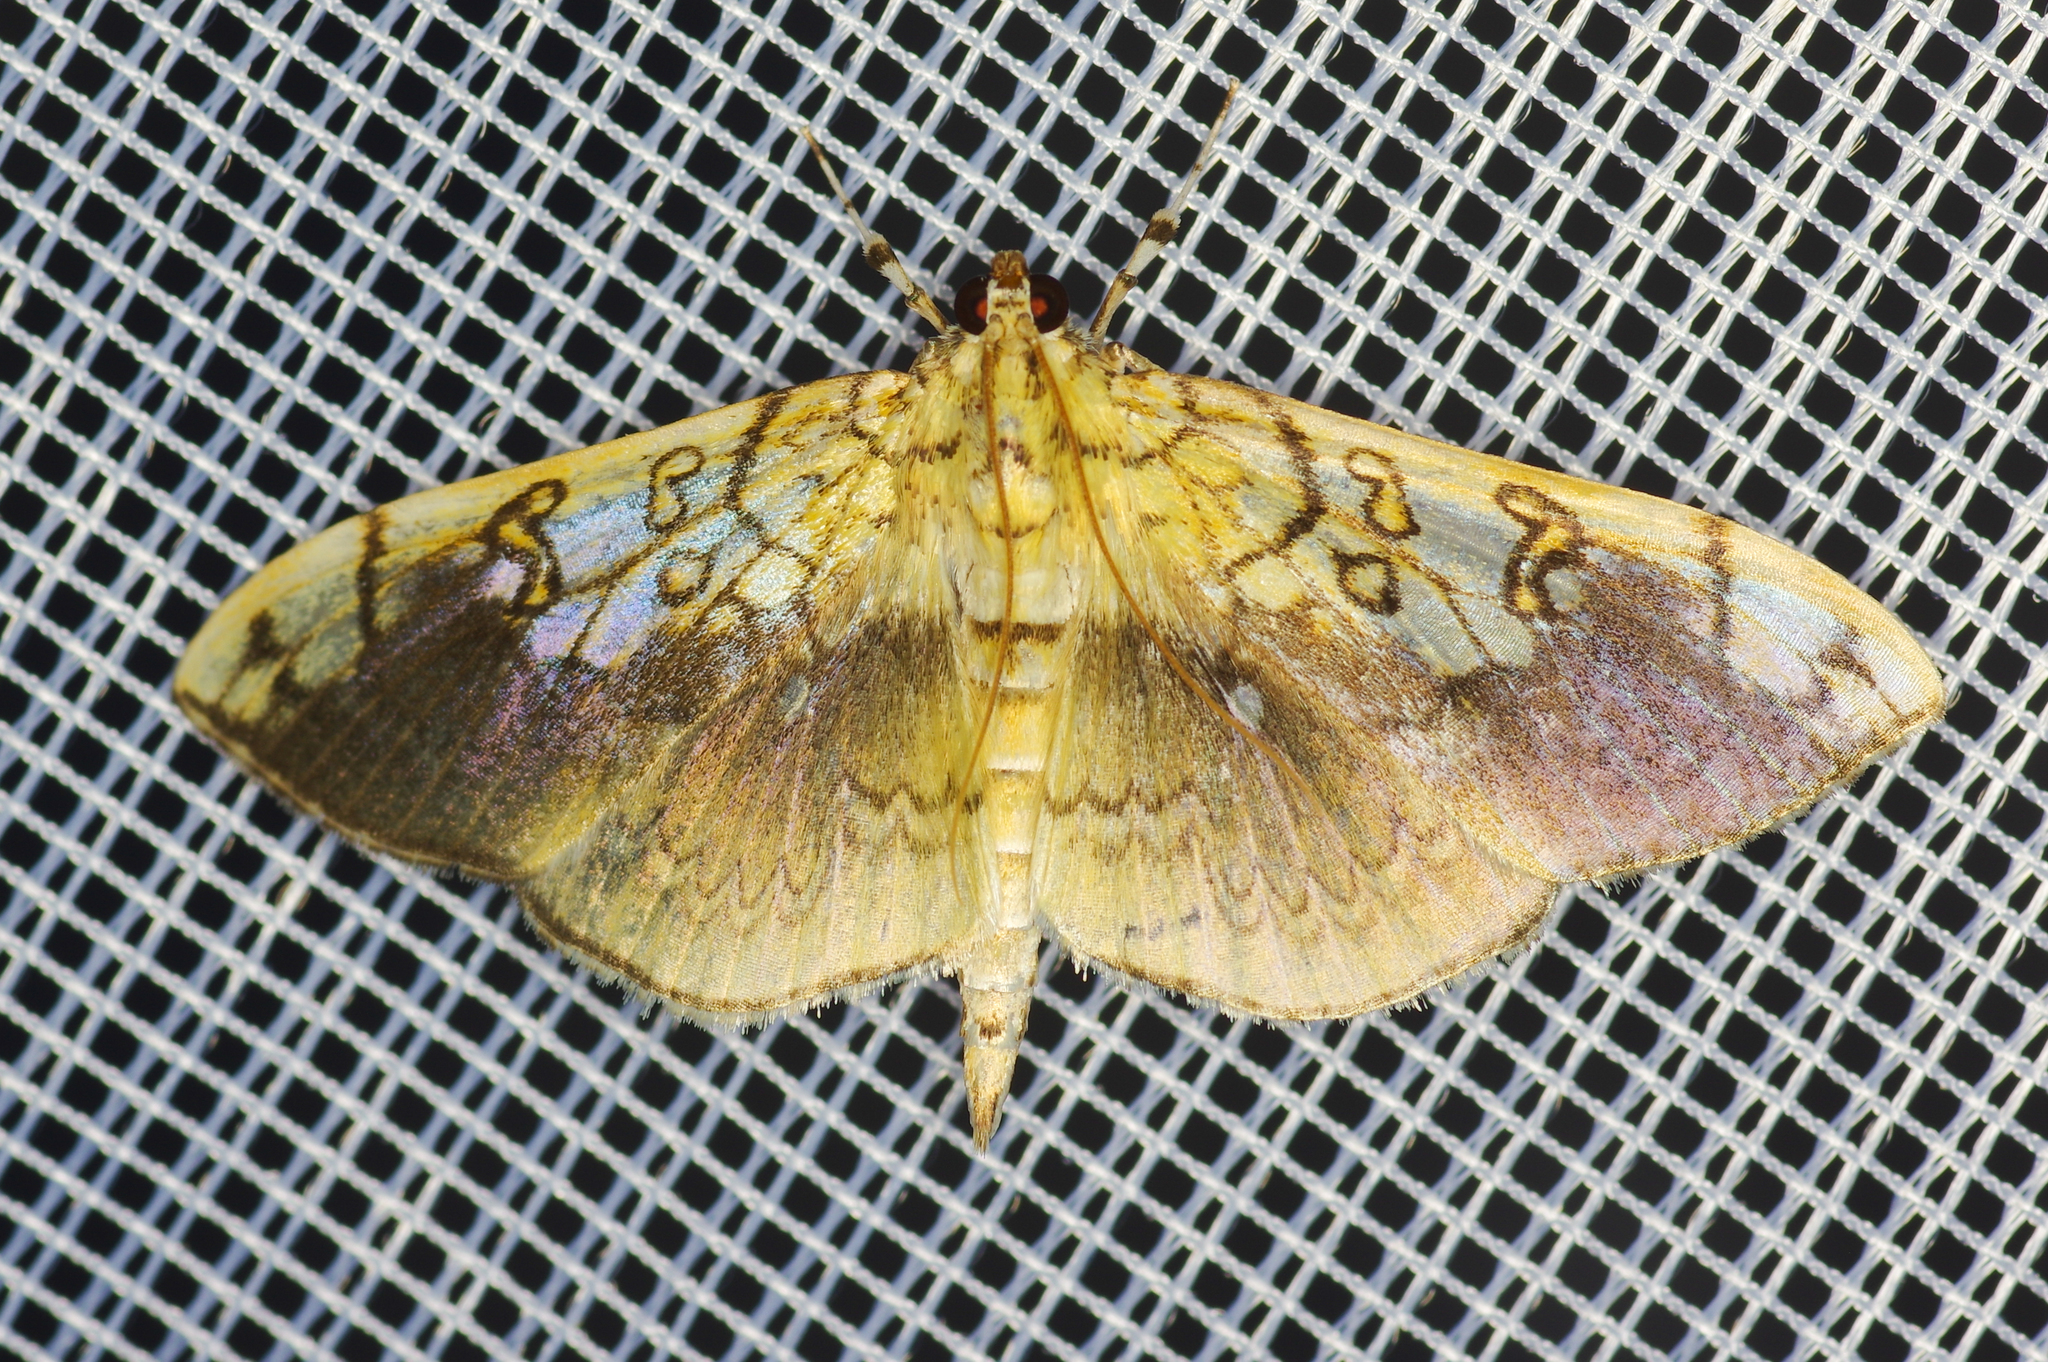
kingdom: Animalia
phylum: Arthropoda
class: Insecta
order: Lepidoptera
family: Crambidae
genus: Pantographa
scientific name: Pantographa limata
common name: Basswood leafroller moth
